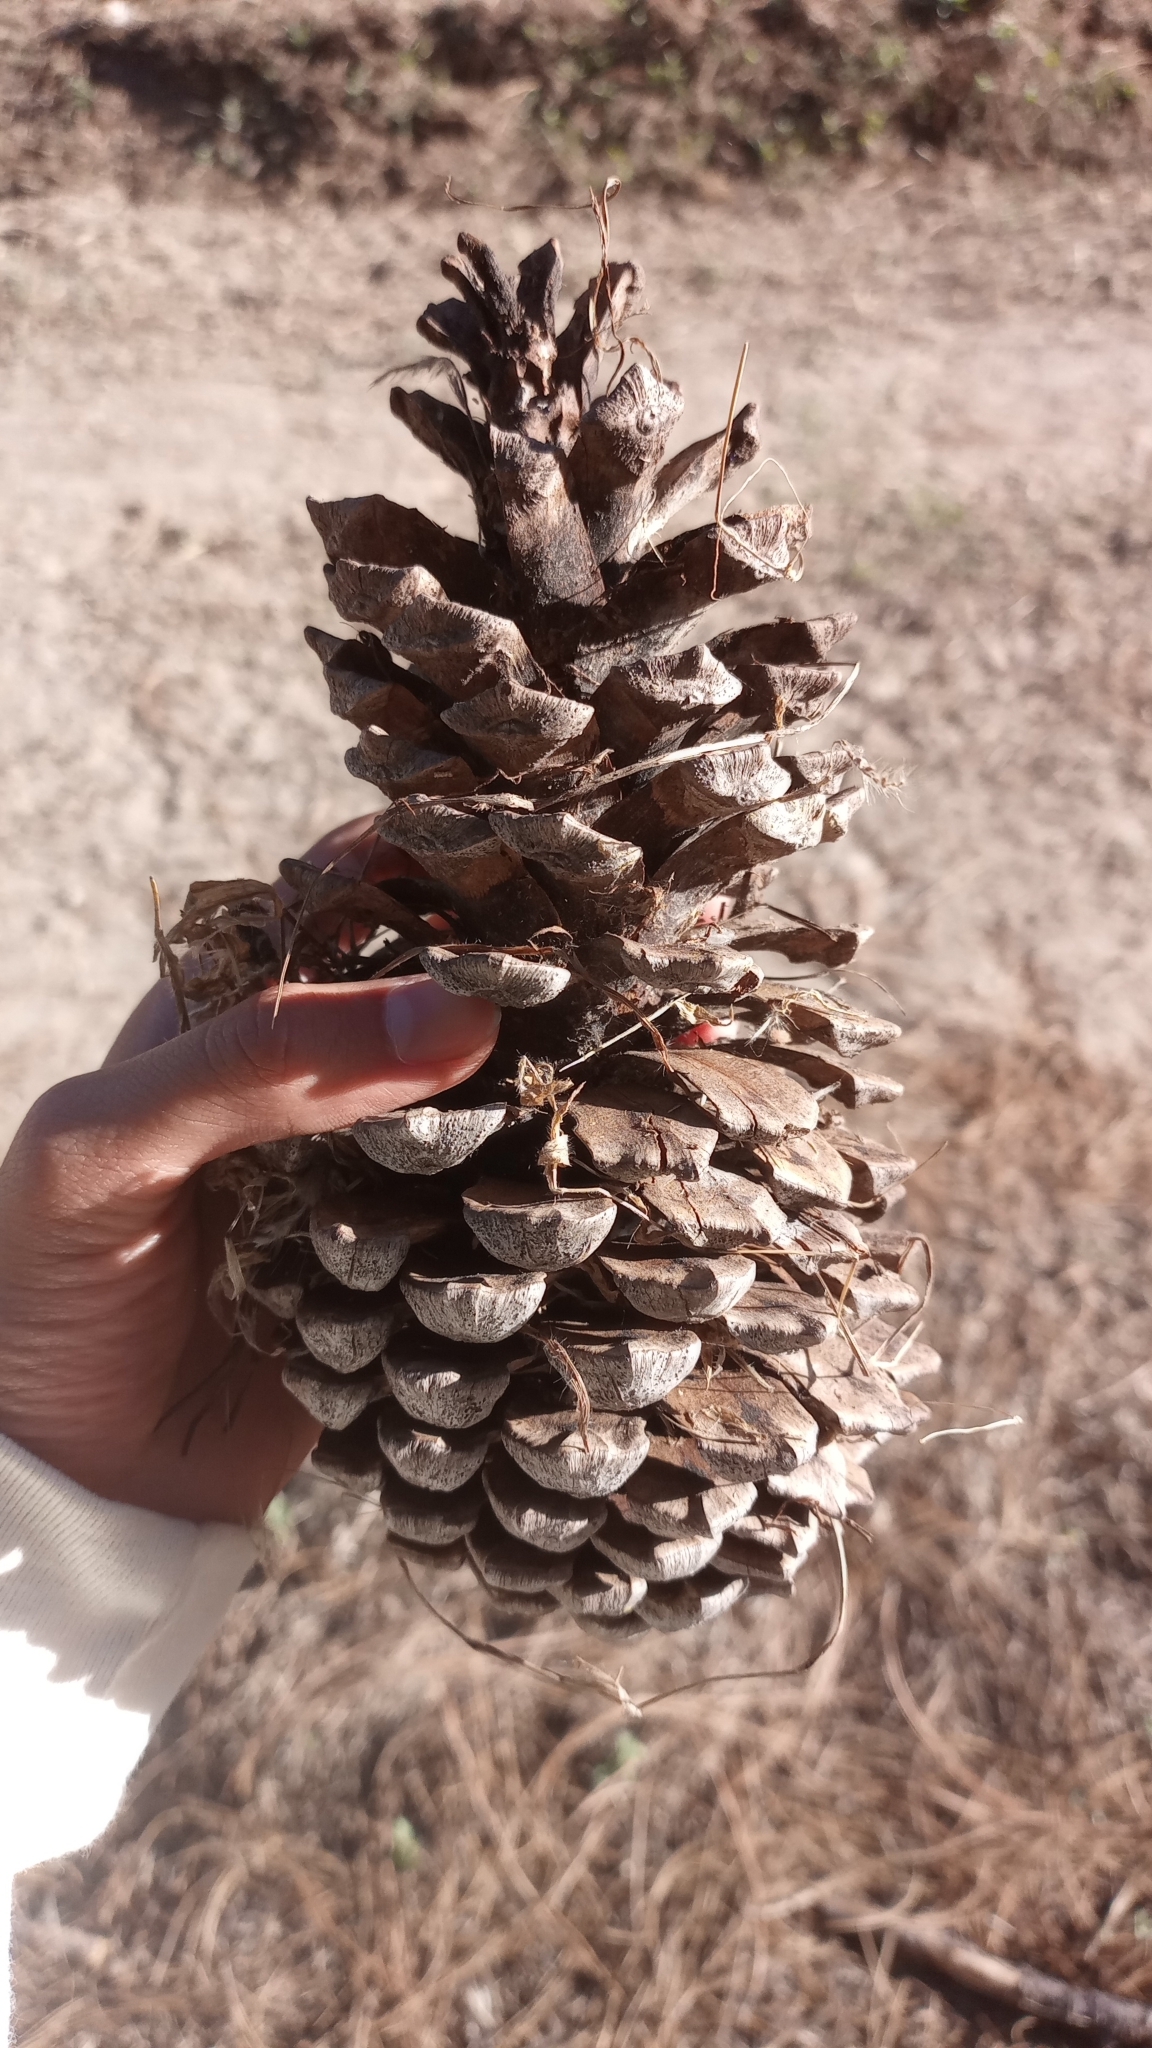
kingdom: Plantae
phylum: Tracheophyta
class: Pinopsida
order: Pinales
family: Pinaceae
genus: Pinus
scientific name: Pinus devoniana
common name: Michoacan pine
